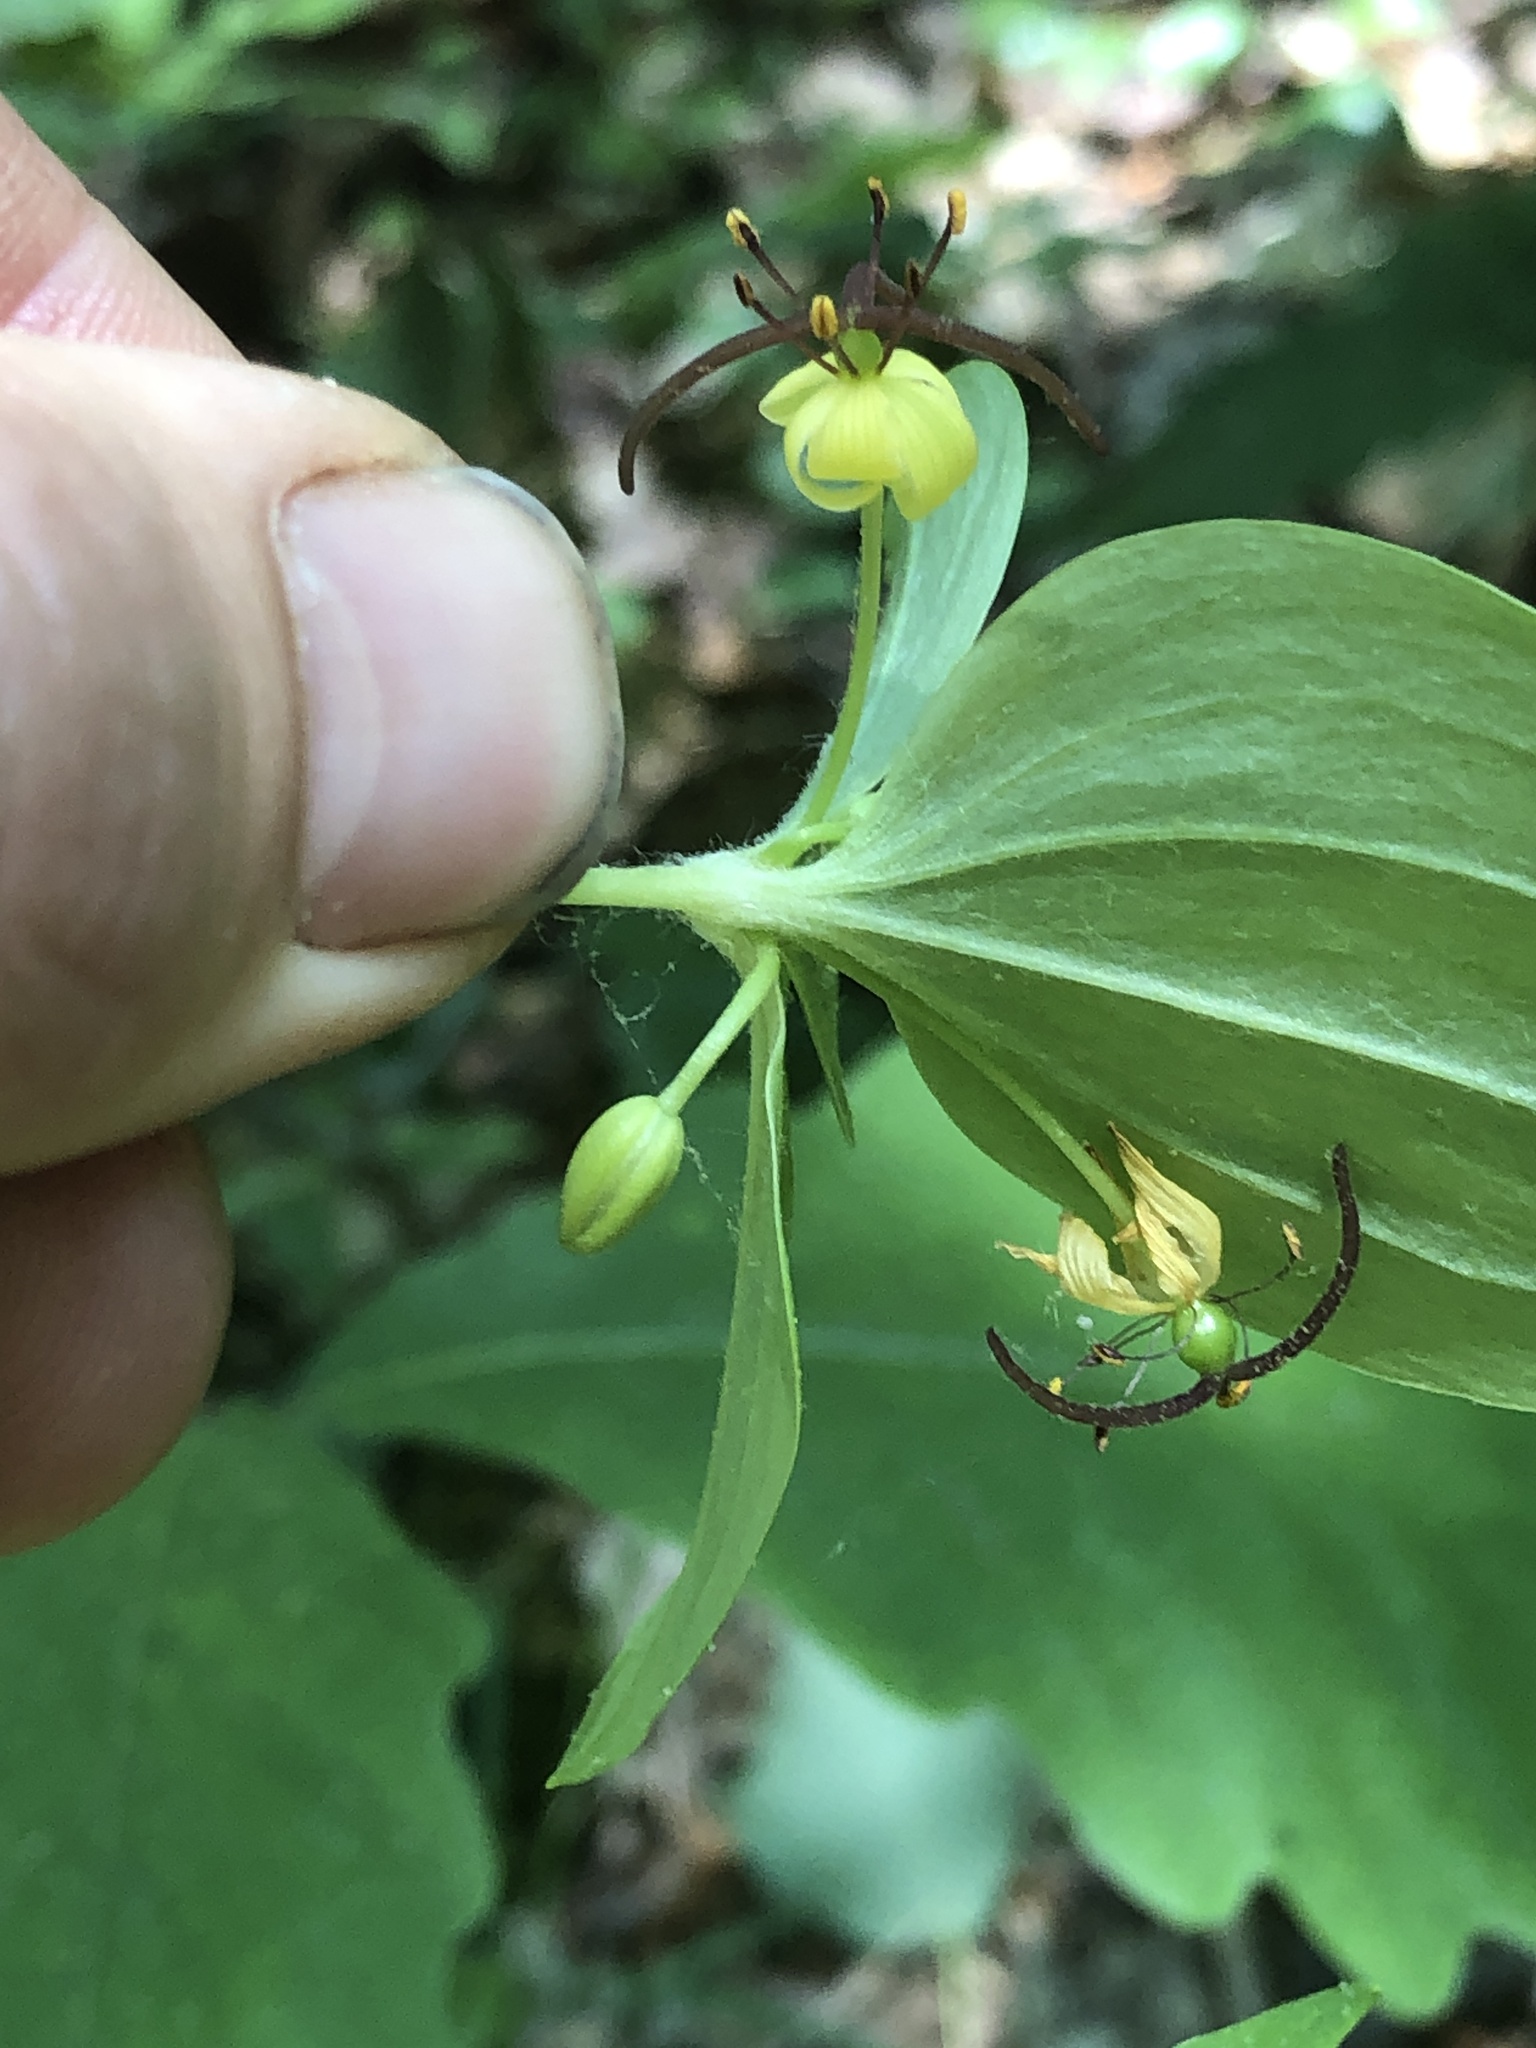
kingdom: Plantae
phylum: Tracheophyta
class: Liliopsida
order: Liliales
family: Liliaceae
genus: Medeola
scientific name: Medeola virginiana
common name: Indian cucumber-root
